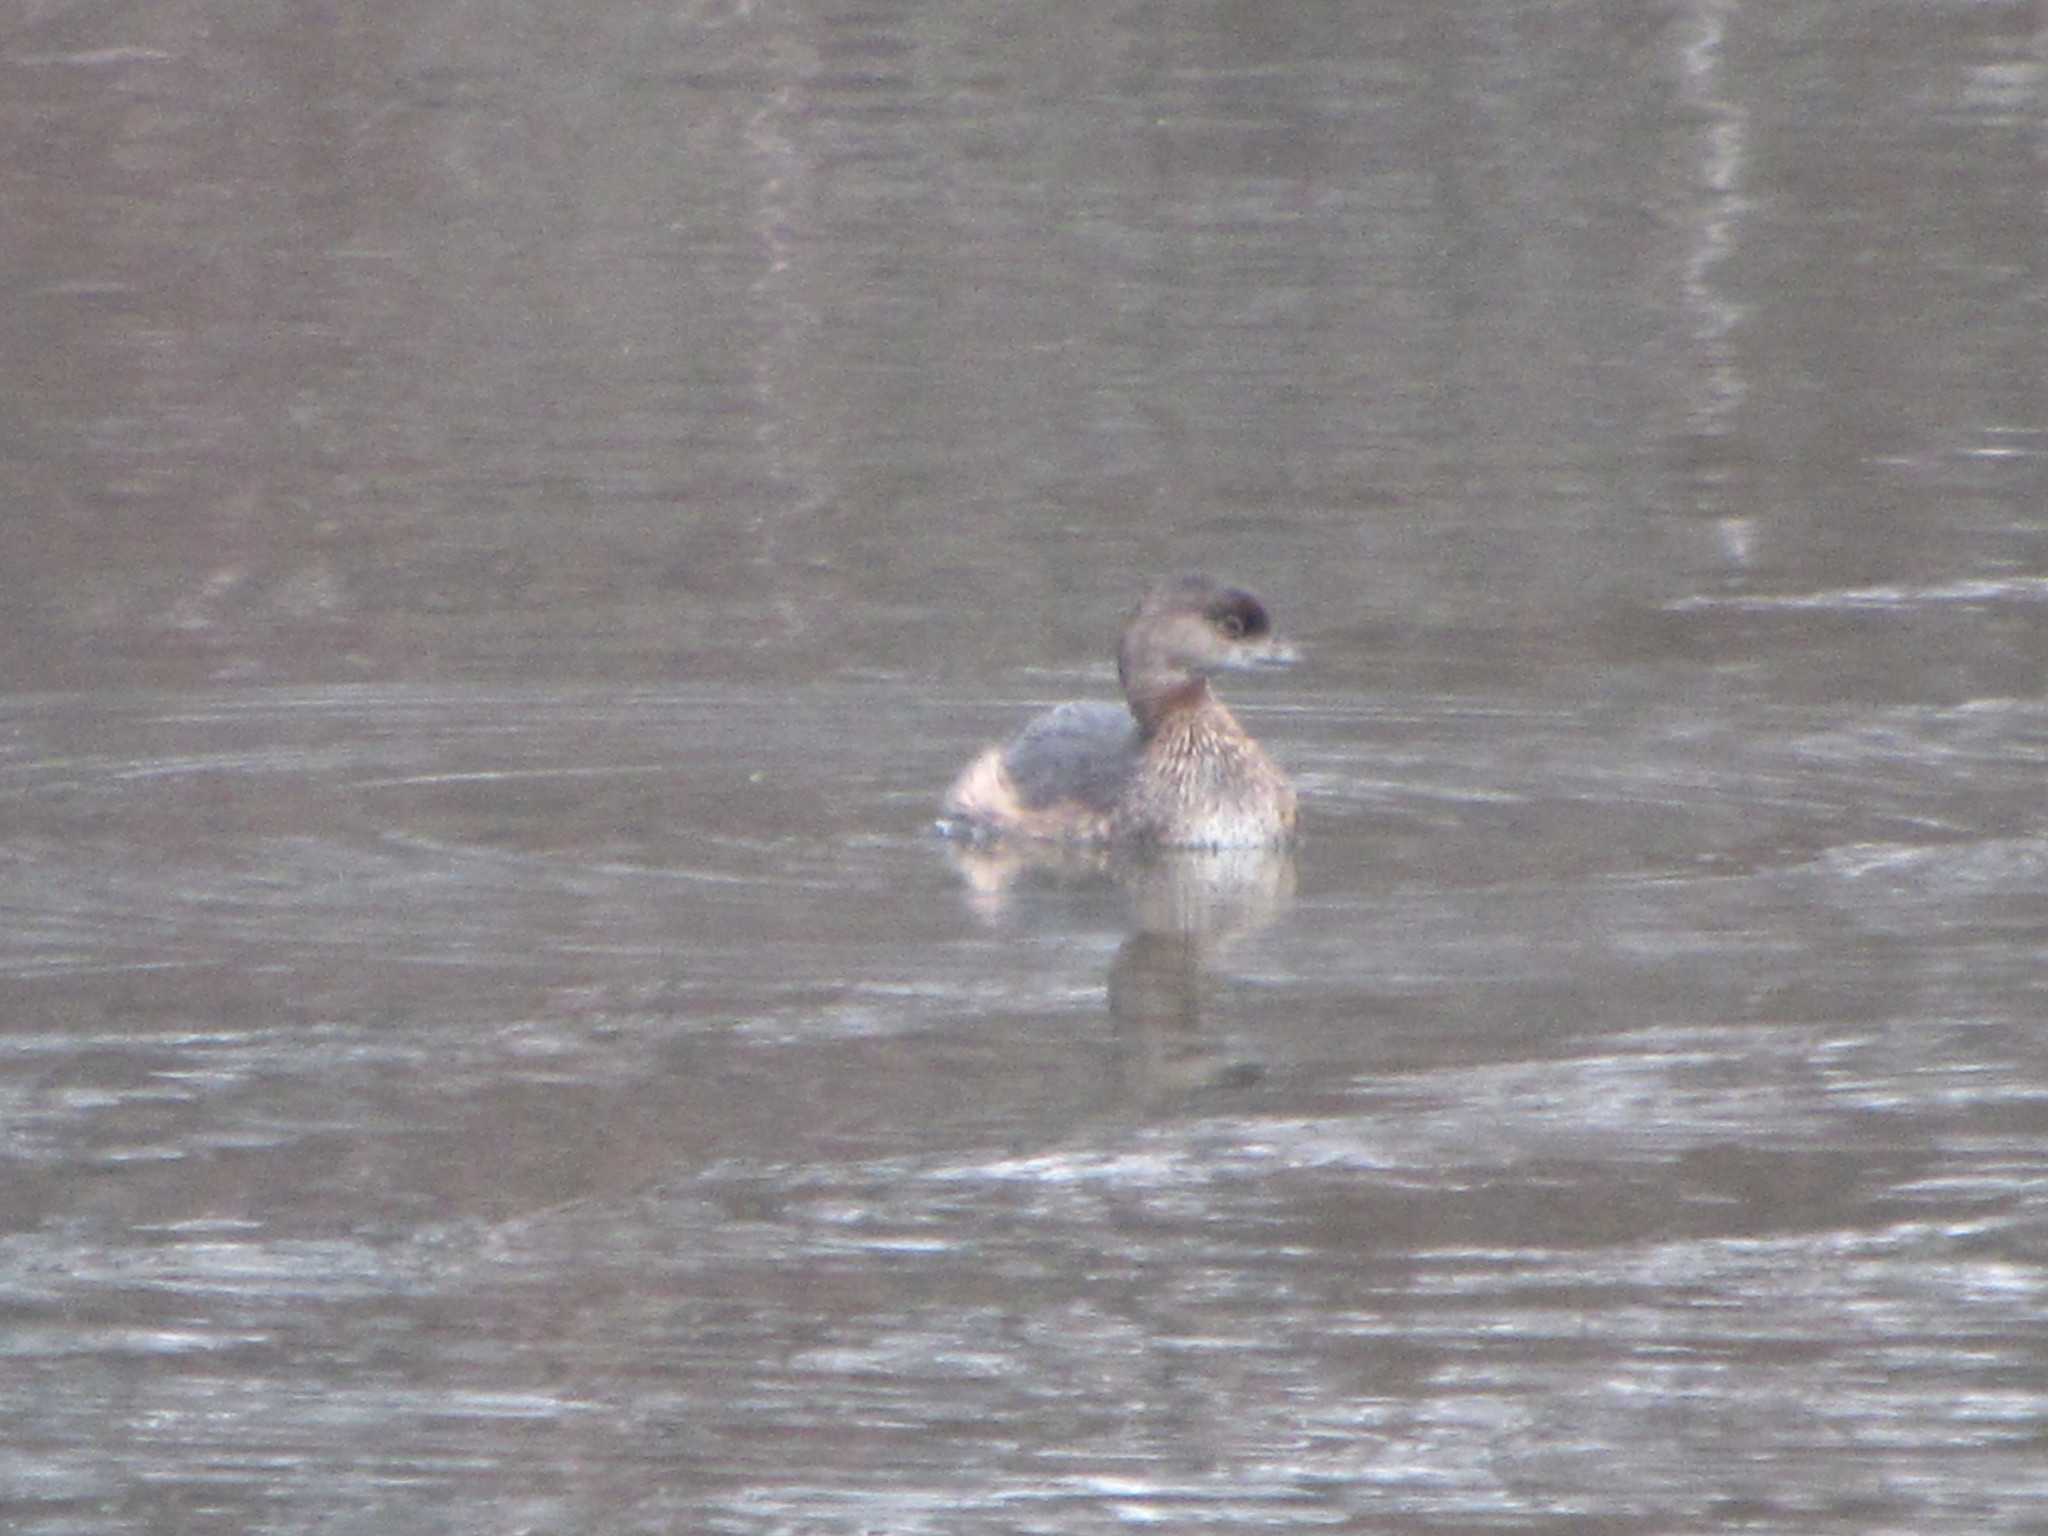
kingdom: Animalia
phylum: Chordata
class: Aves
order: Podicipediformes
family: Podicipedidae
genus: Podilymbus
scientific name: Podilymbus podiceps
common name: Pied-billed grebe
